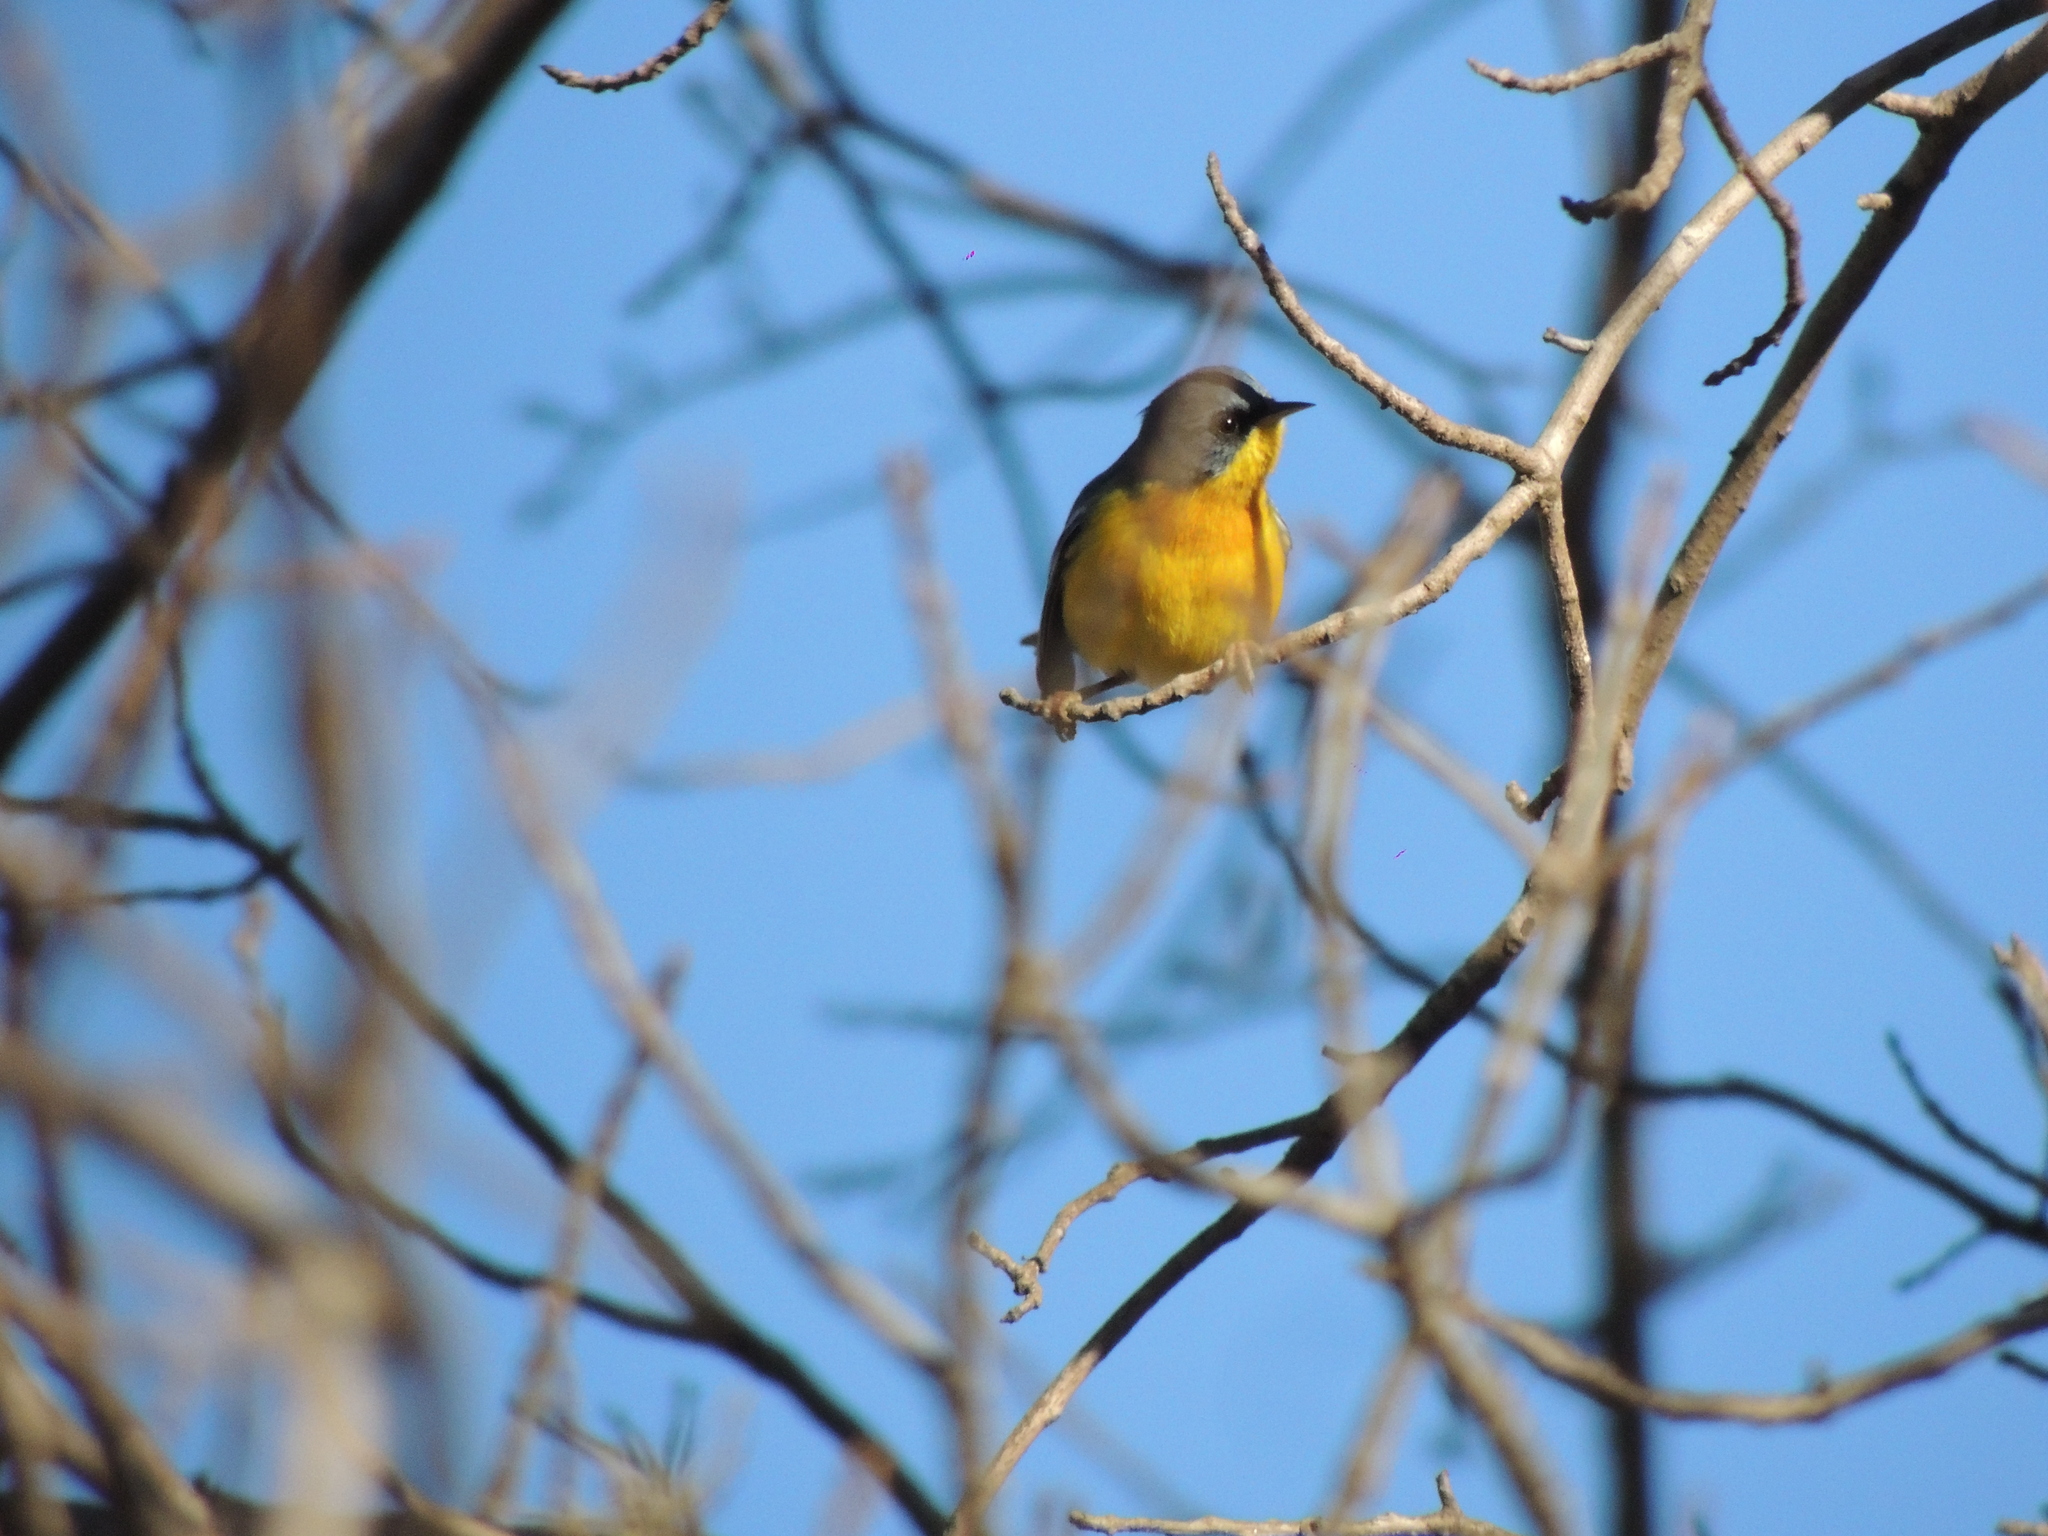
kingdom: Animalia
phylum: Chordata
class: Aves
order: Passeriformes
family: Parulidae
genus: Setophaga
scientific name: Setophaga pitiayumi
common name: Tropical parula
